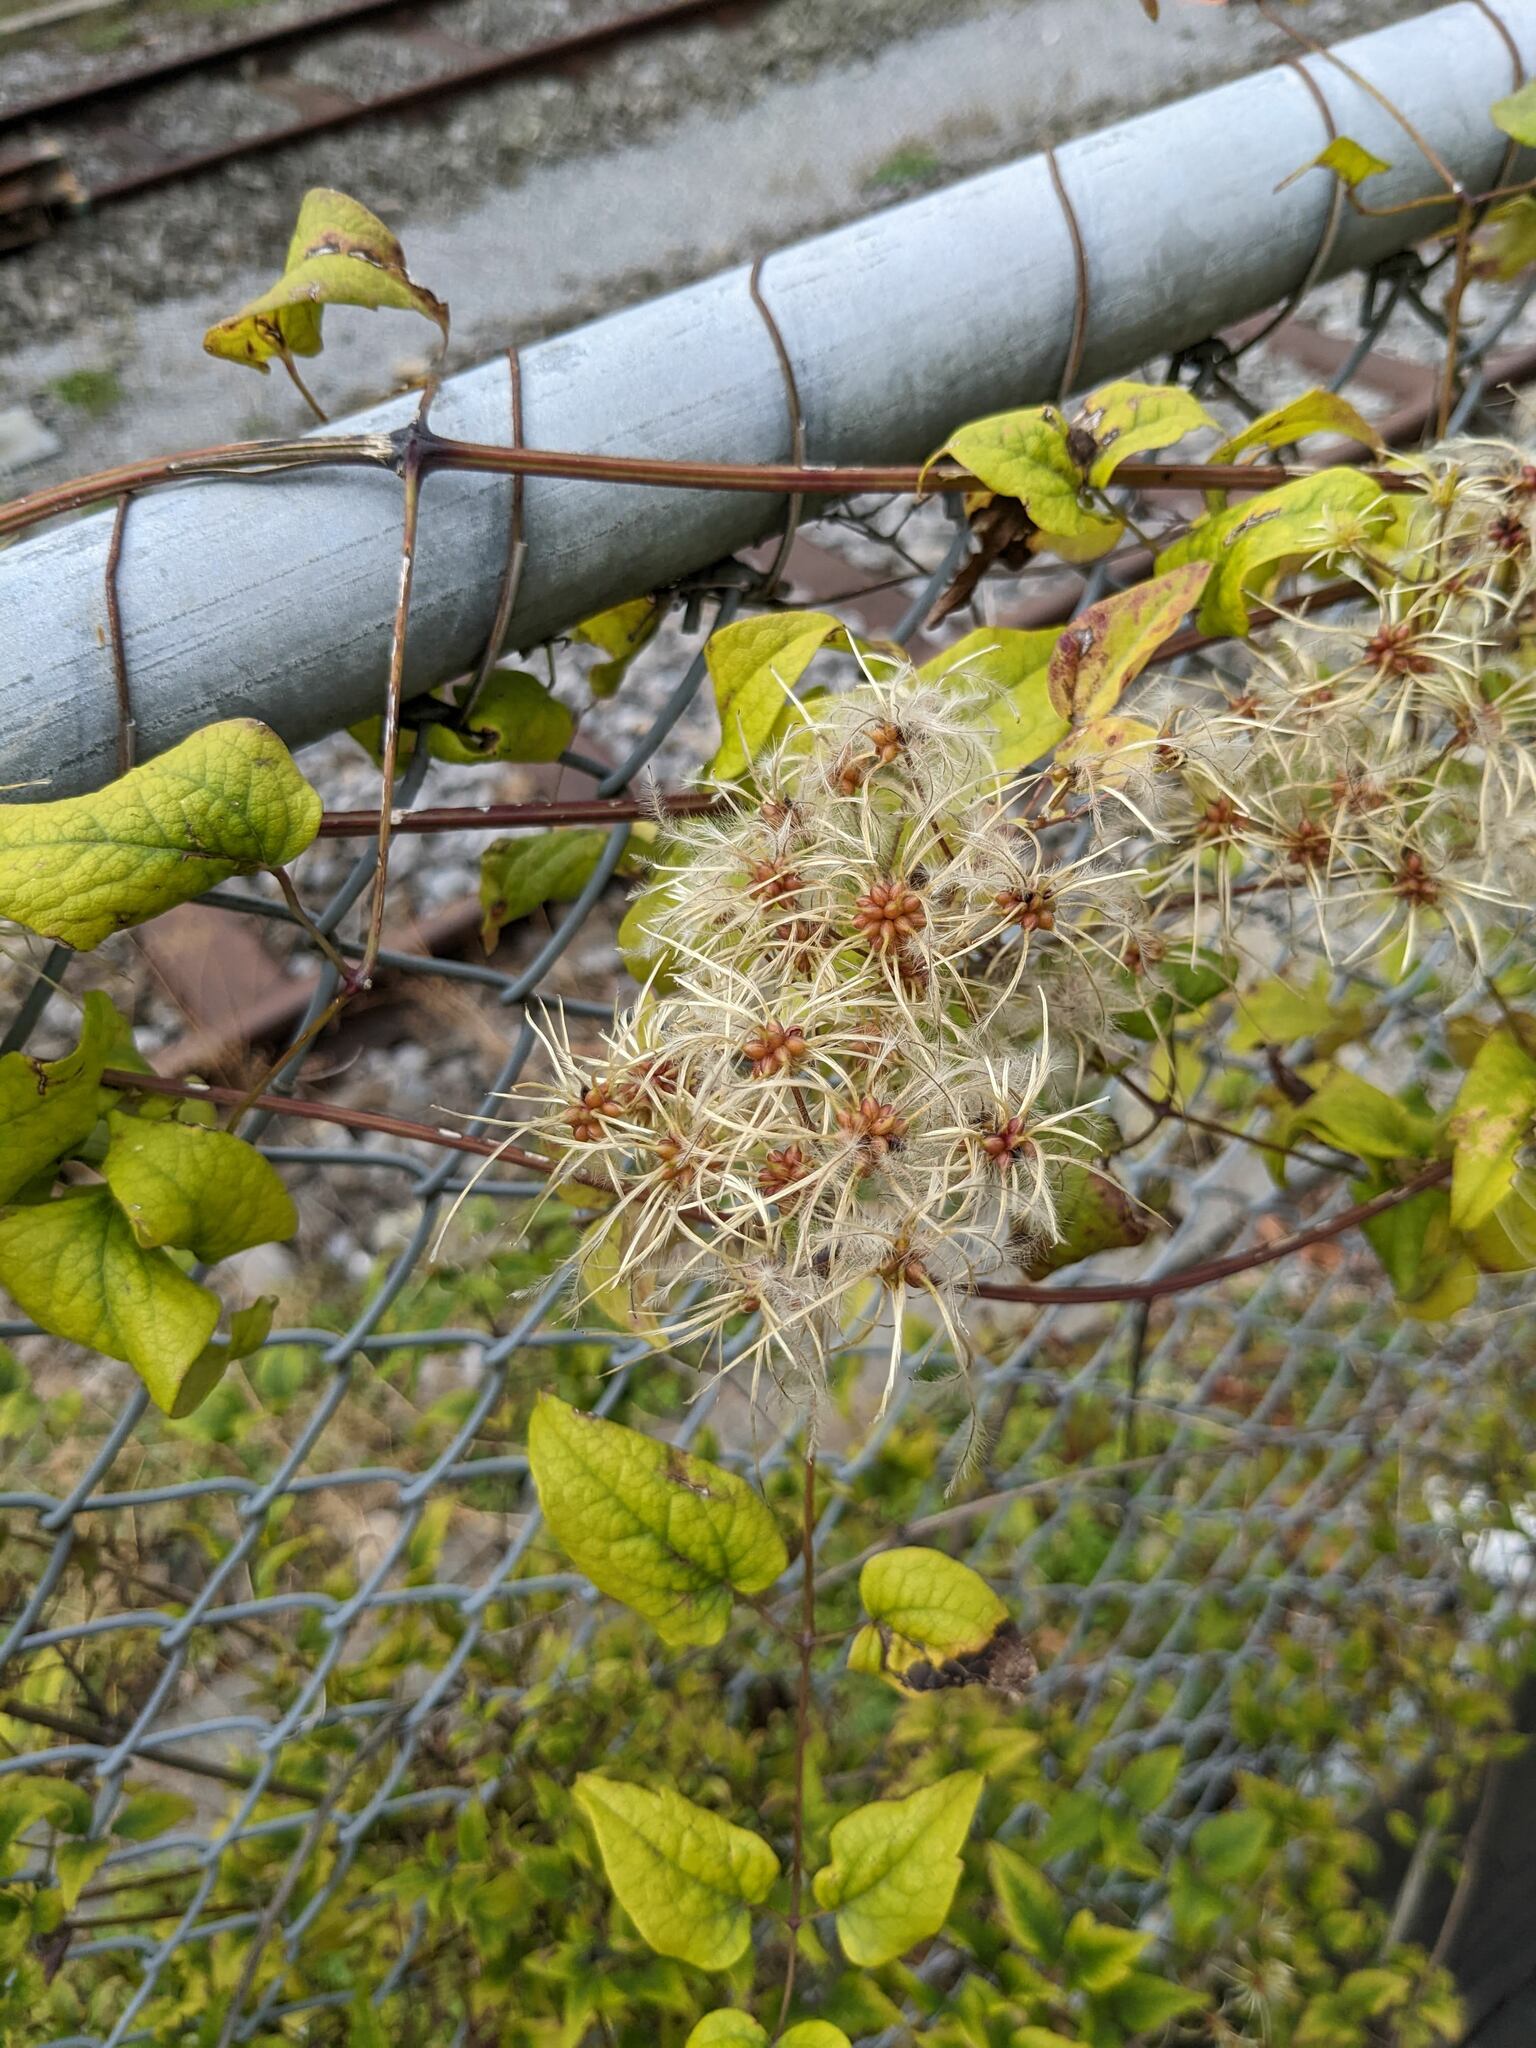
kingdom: Plantae
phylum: Tracheophyta
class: Magnoliopsida
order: Ranunculales
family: Ranunculaceae
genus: Clematis
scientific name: Clematis vitalba
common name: Evergreen clematis
